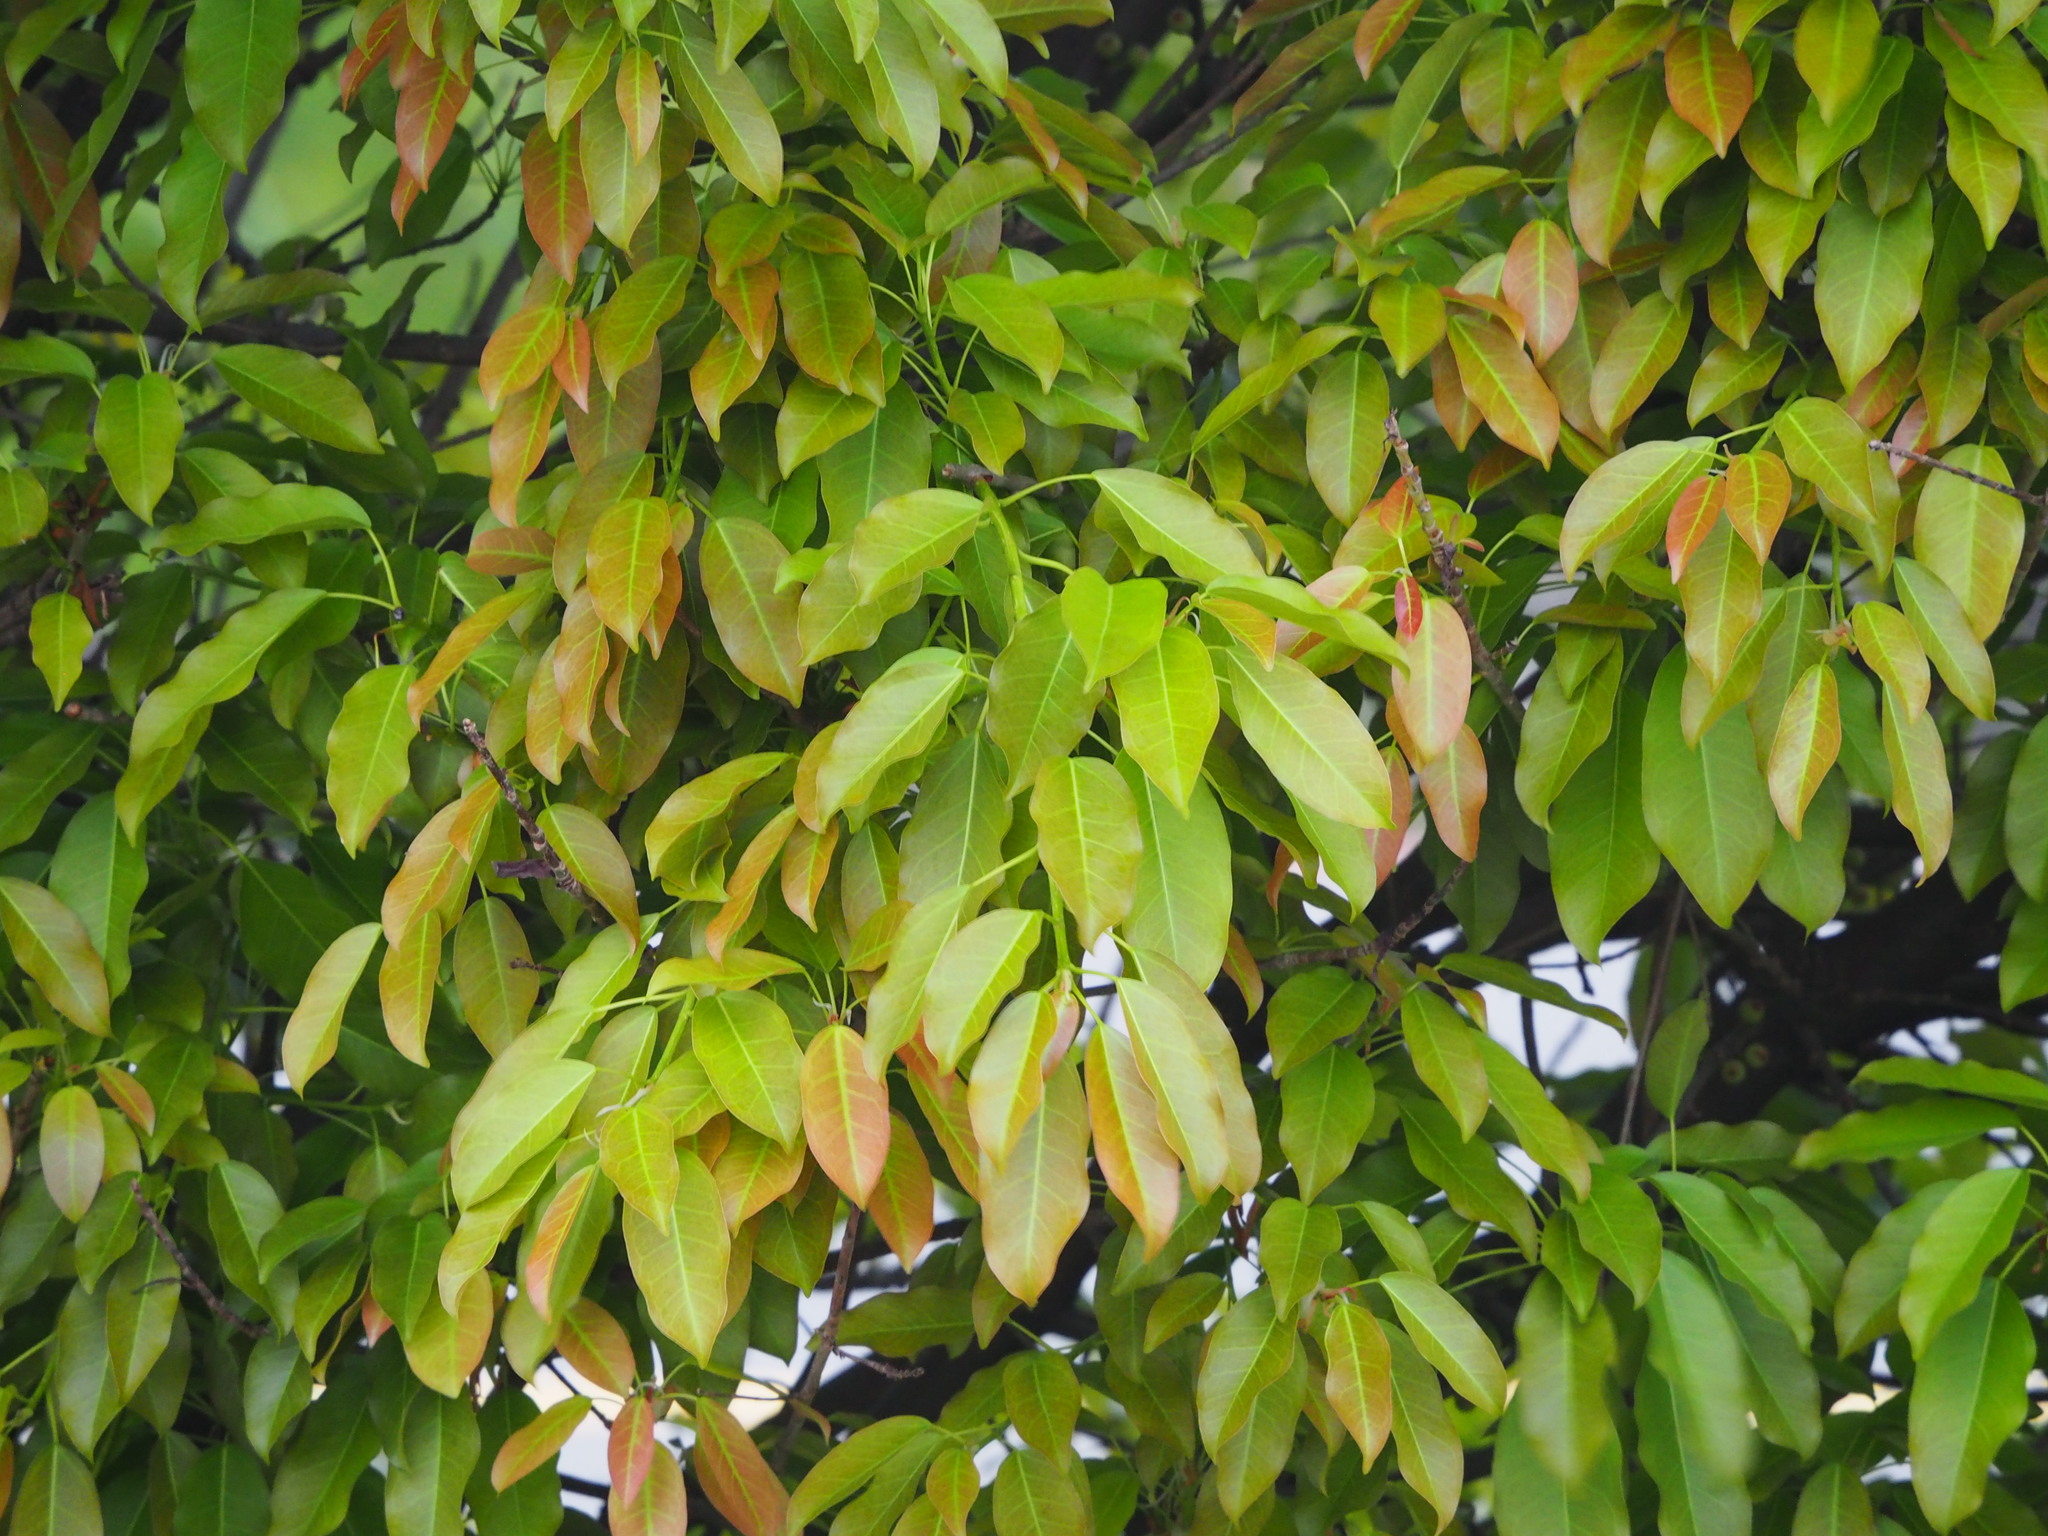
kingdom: Plantae
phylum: Tracheophyta
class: Magnoliopsida
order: Rosales
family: Moraceae
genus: Ficus
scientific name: Ficus subpisocarpa
